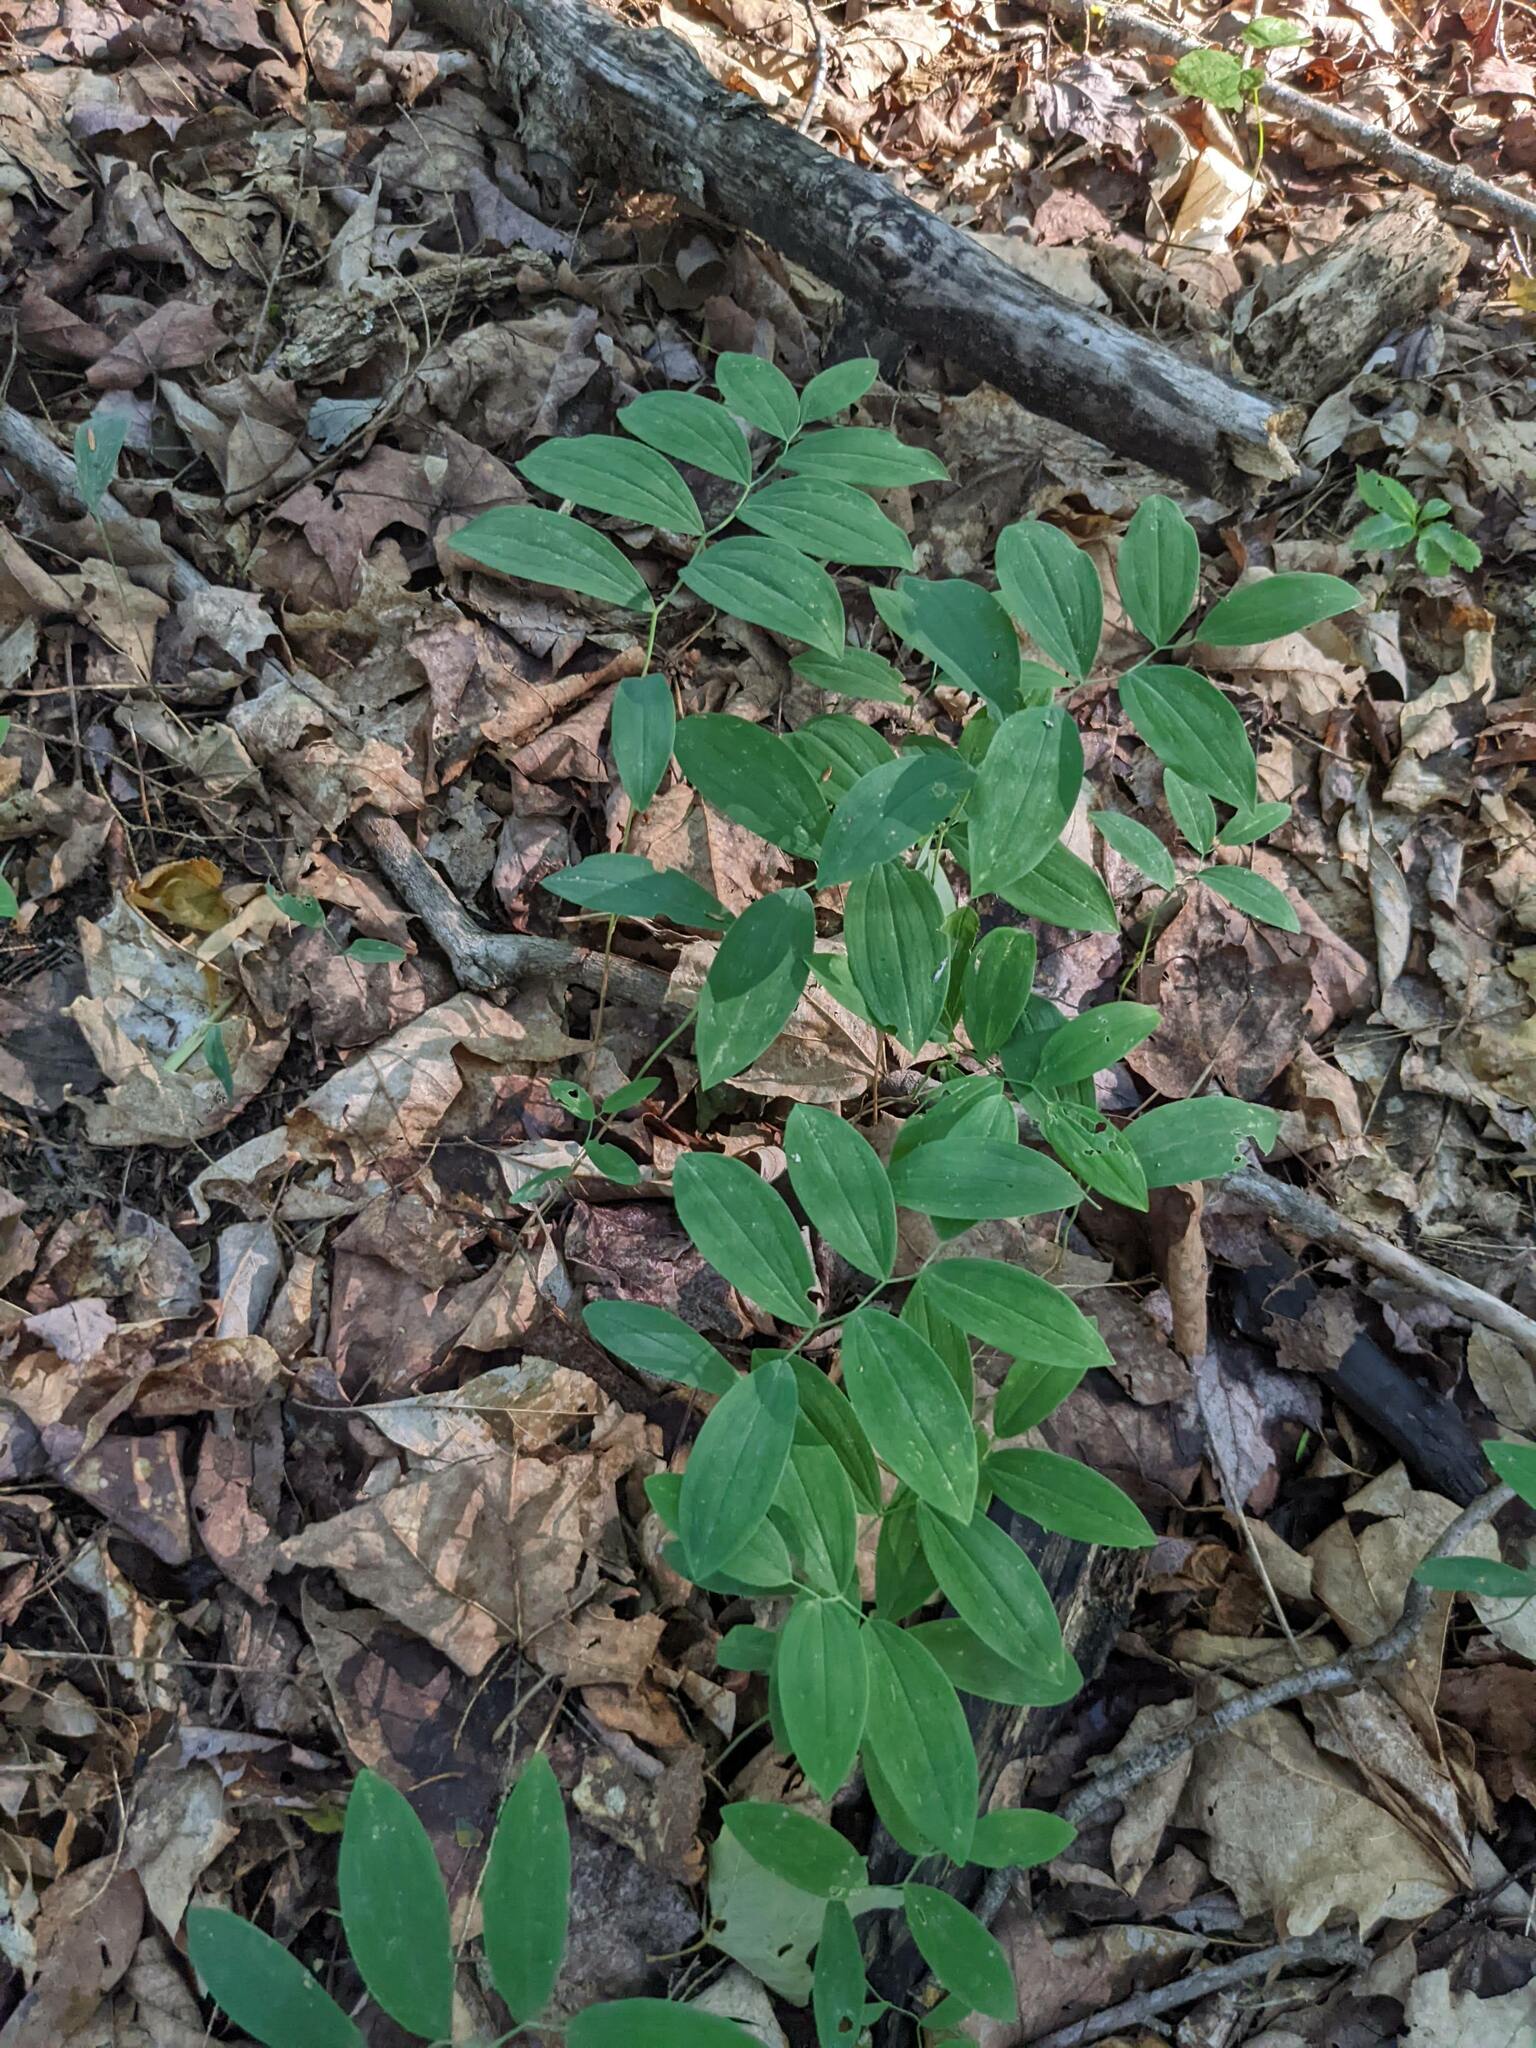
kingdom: Plantae
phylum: Tracheophyta
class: Liliopsida
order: Liliales
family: Colchicaceae
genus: Uvularia
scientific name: Uvularia sessilifolia
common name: Straw-lily
